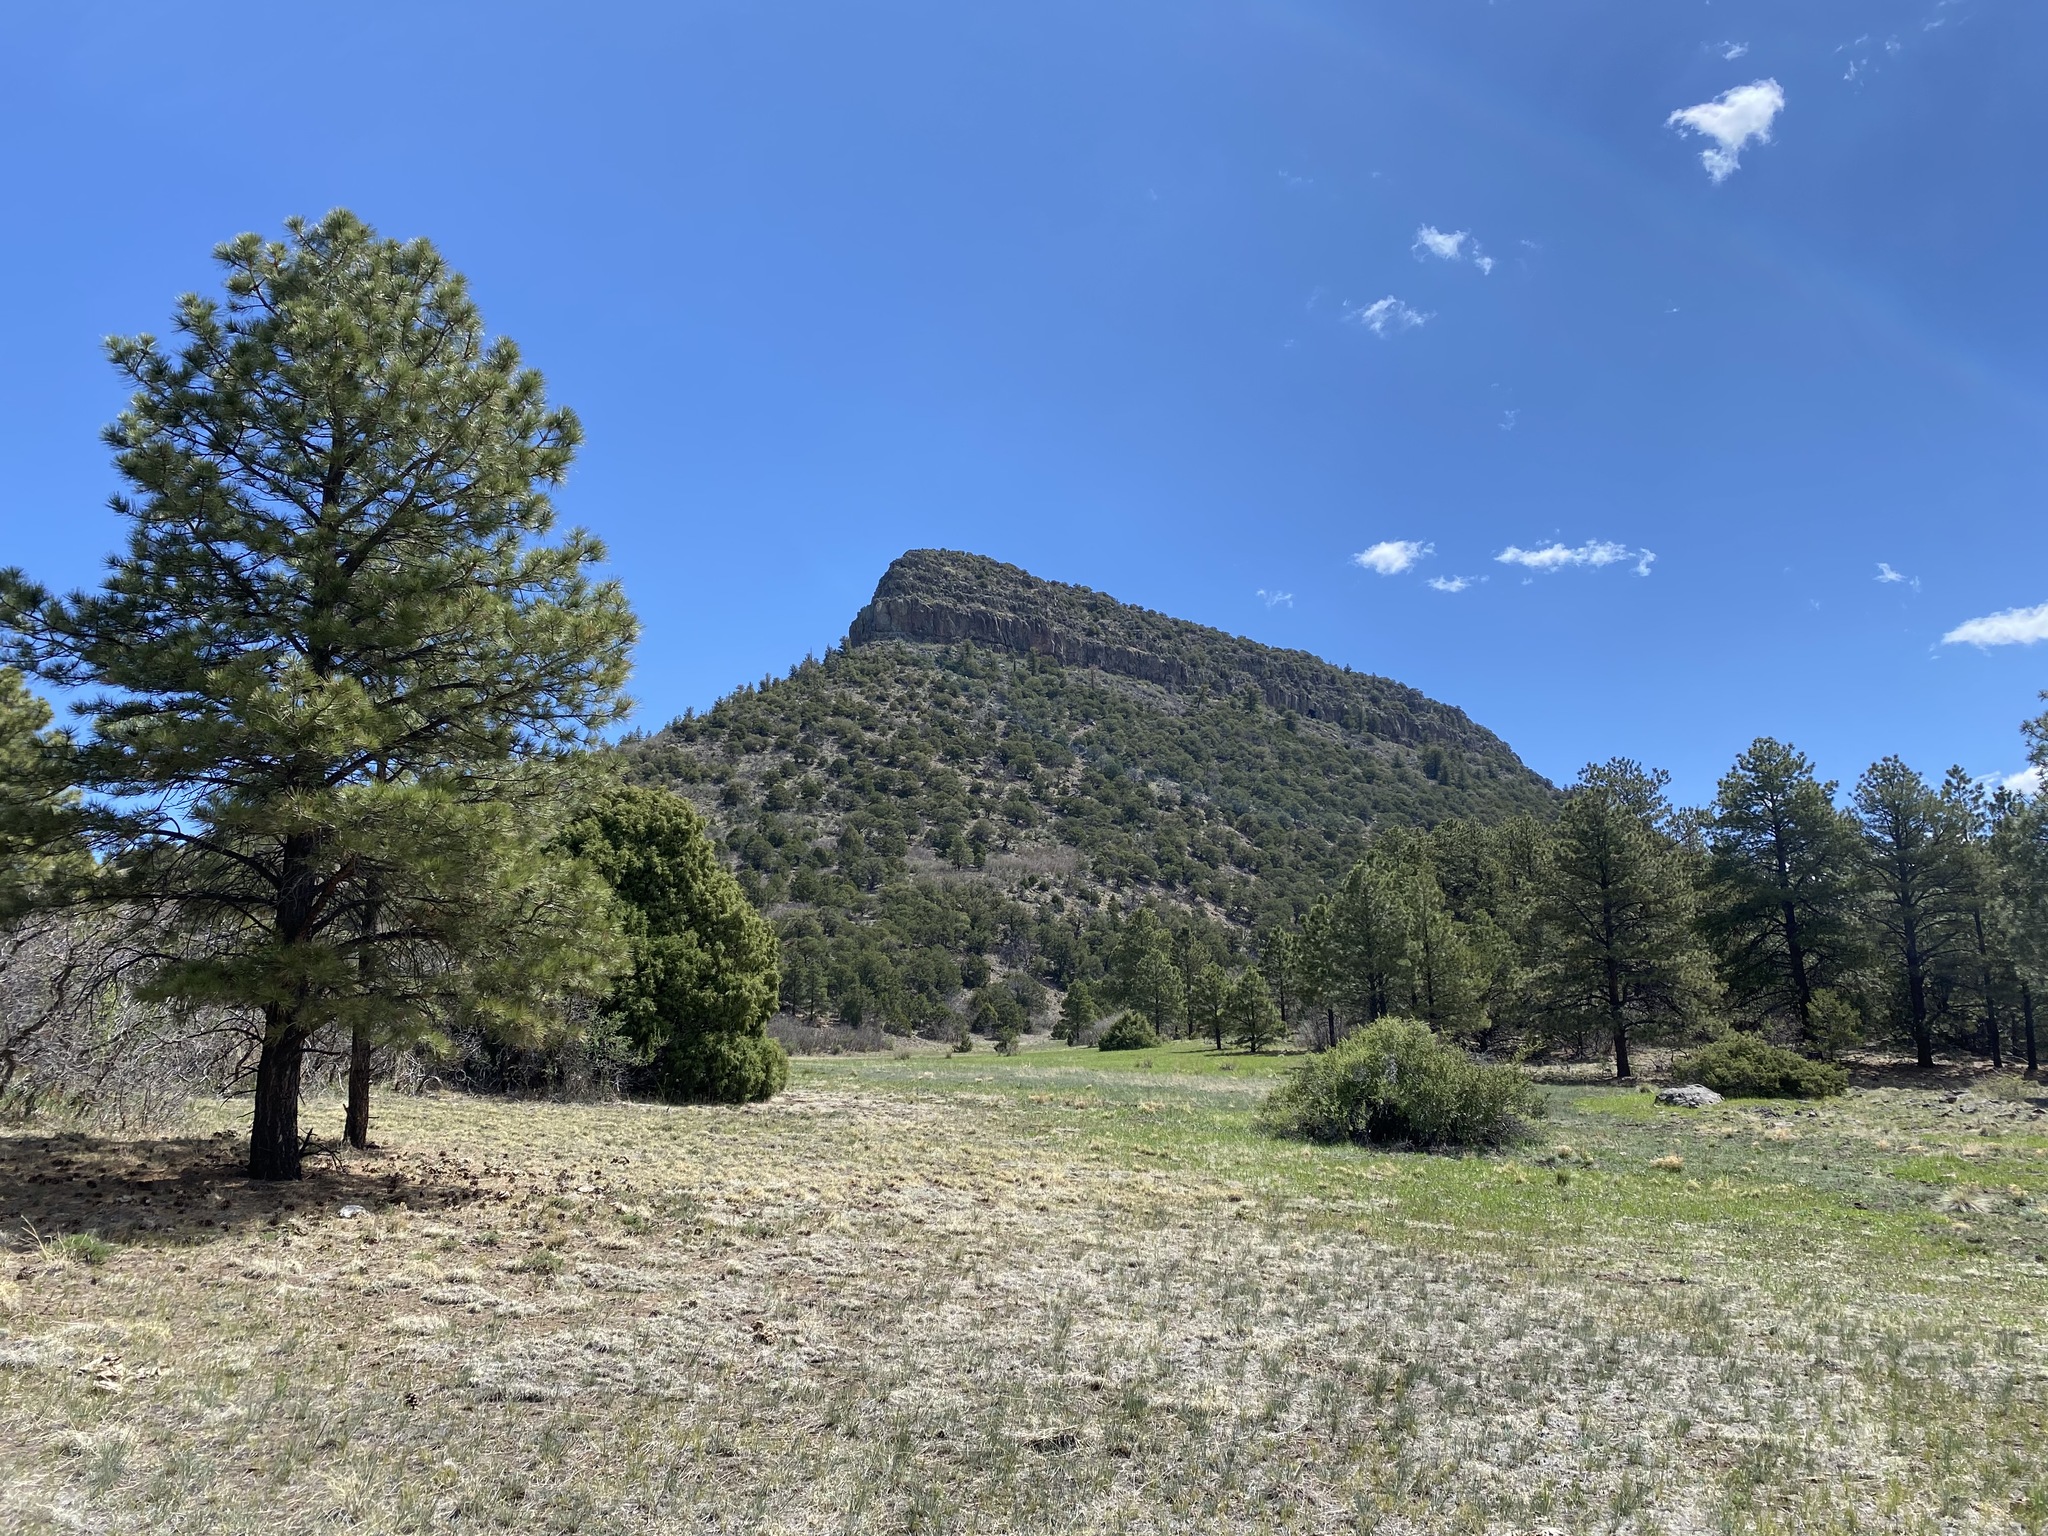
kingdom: Plantae
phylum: Tracheophyta
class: Pinopsida
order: Pinales
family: Pinaceae
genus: Pinus
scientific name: Pinus ponderosa
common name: Western yellow-pine
